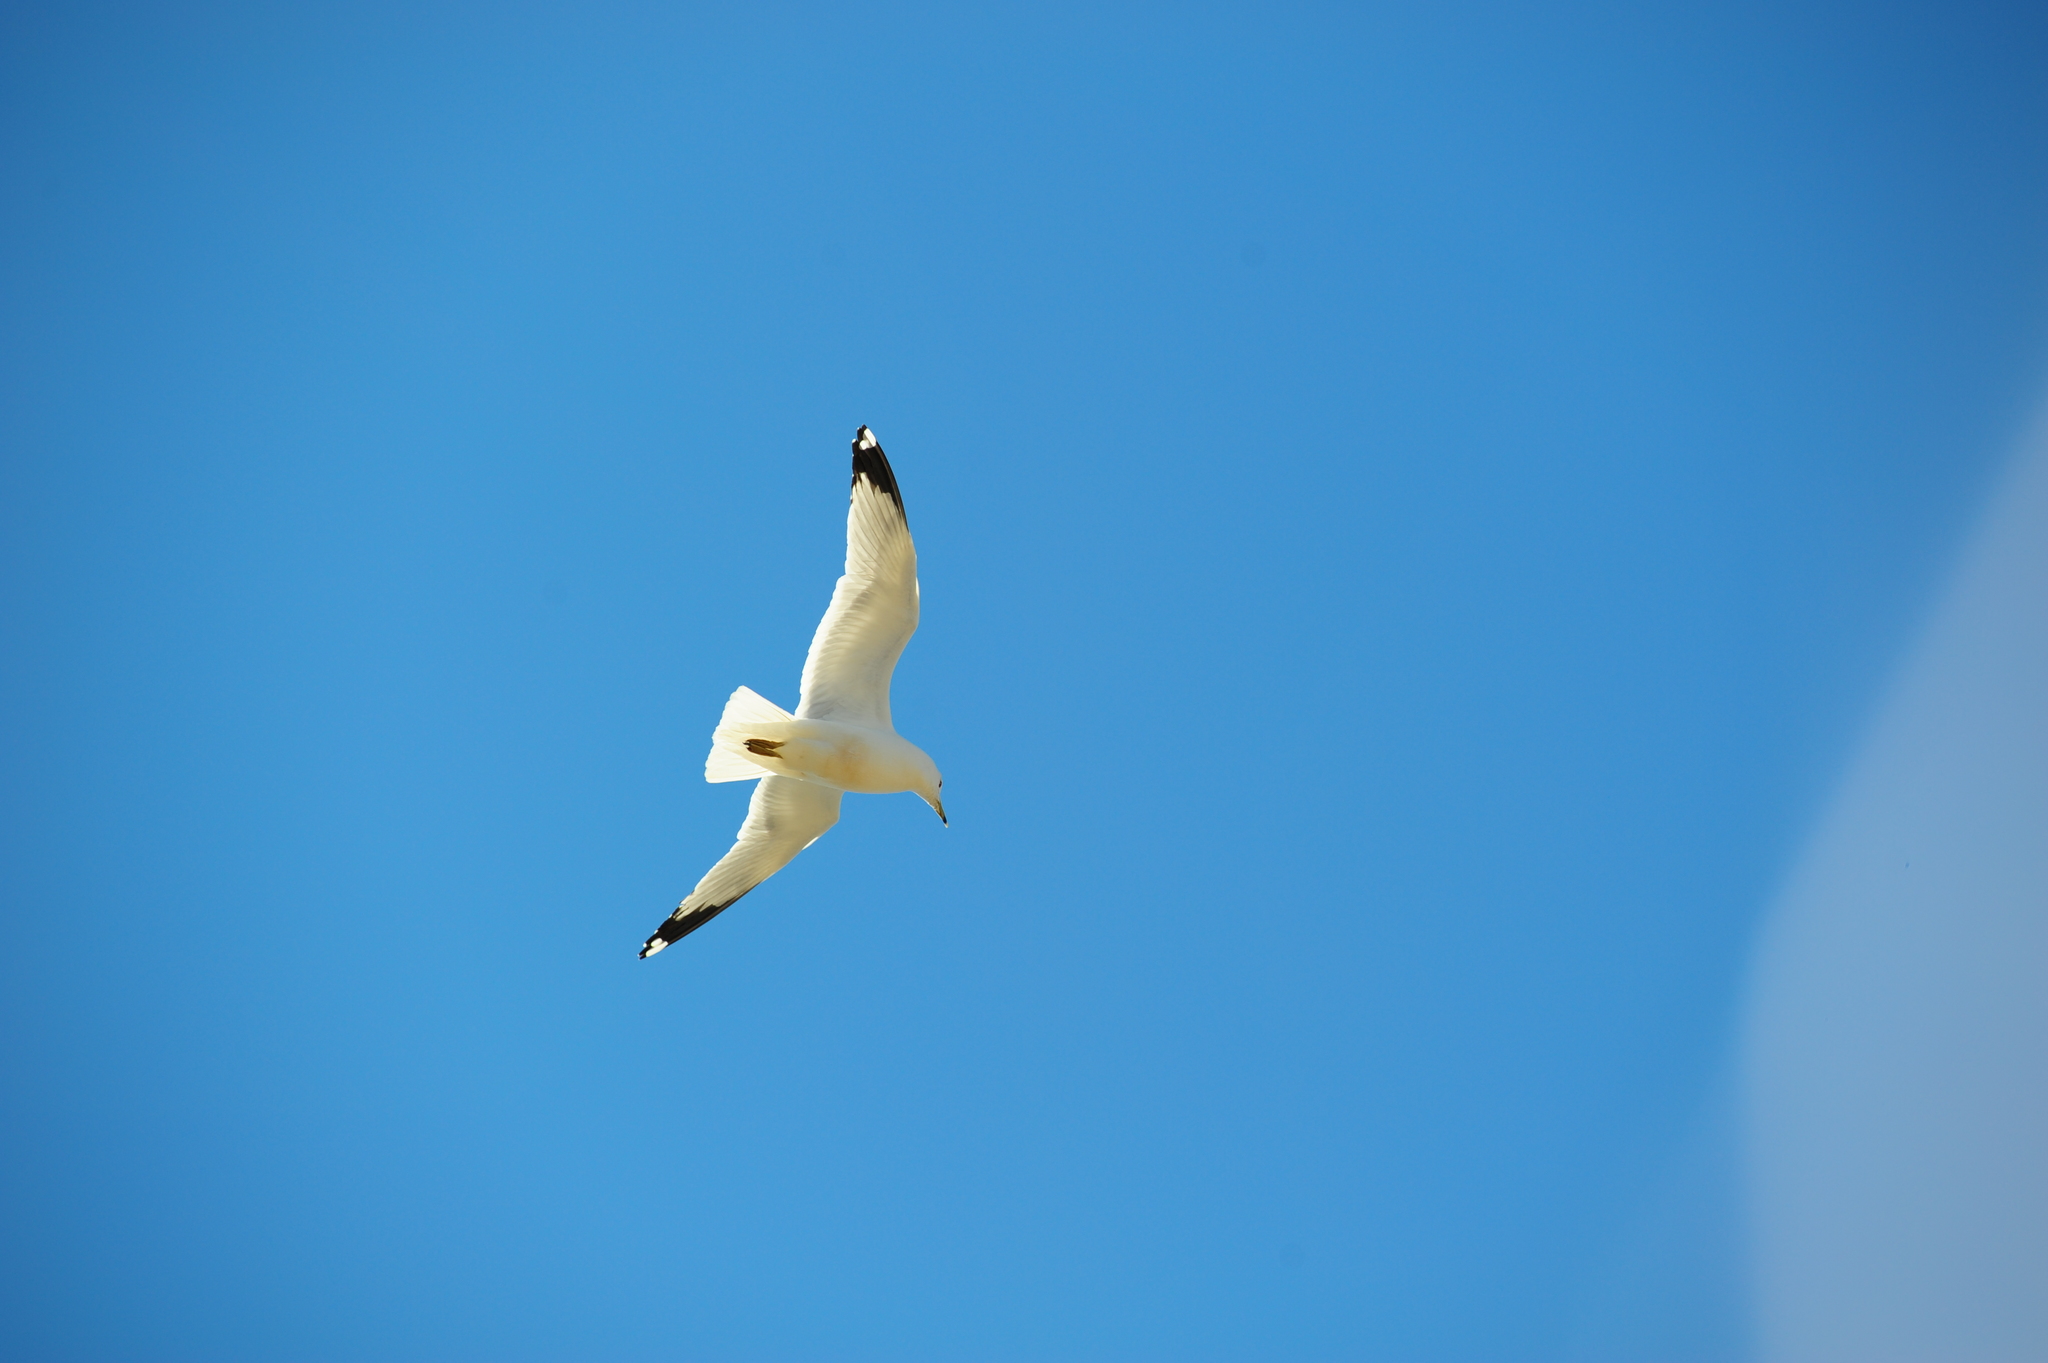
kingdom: Animalia
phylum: Chordata
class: Aves
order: Charadriiformes
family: Laridae
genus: Larus
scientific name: Larus delawarensis
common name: Ring-billed gull
